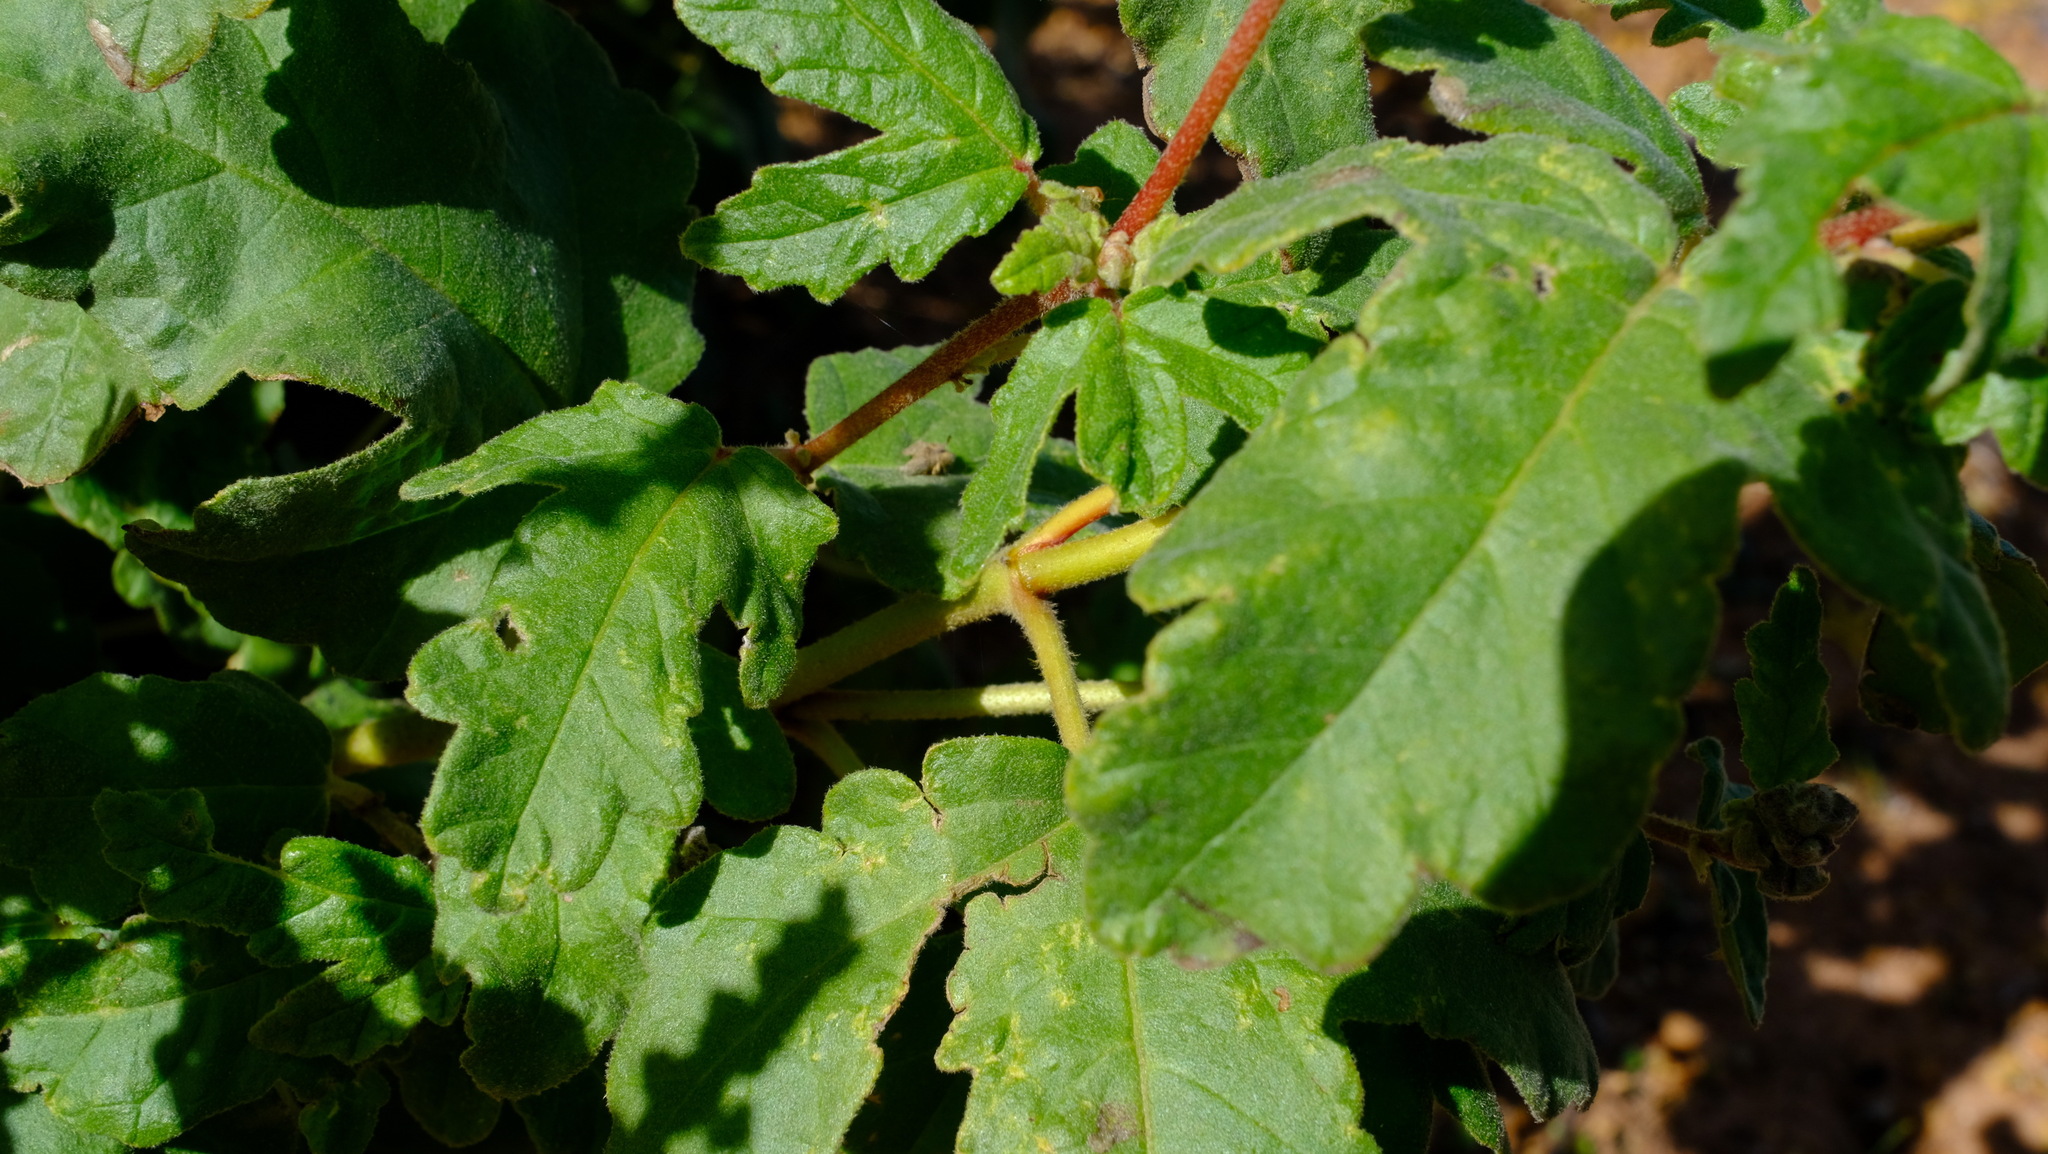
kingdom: Plantae
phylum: Tracheophyta
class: Magnoliopsida
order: Malpighiales
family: Euphorbiaceae
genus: Adriana
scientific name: Adriana tomentosa
